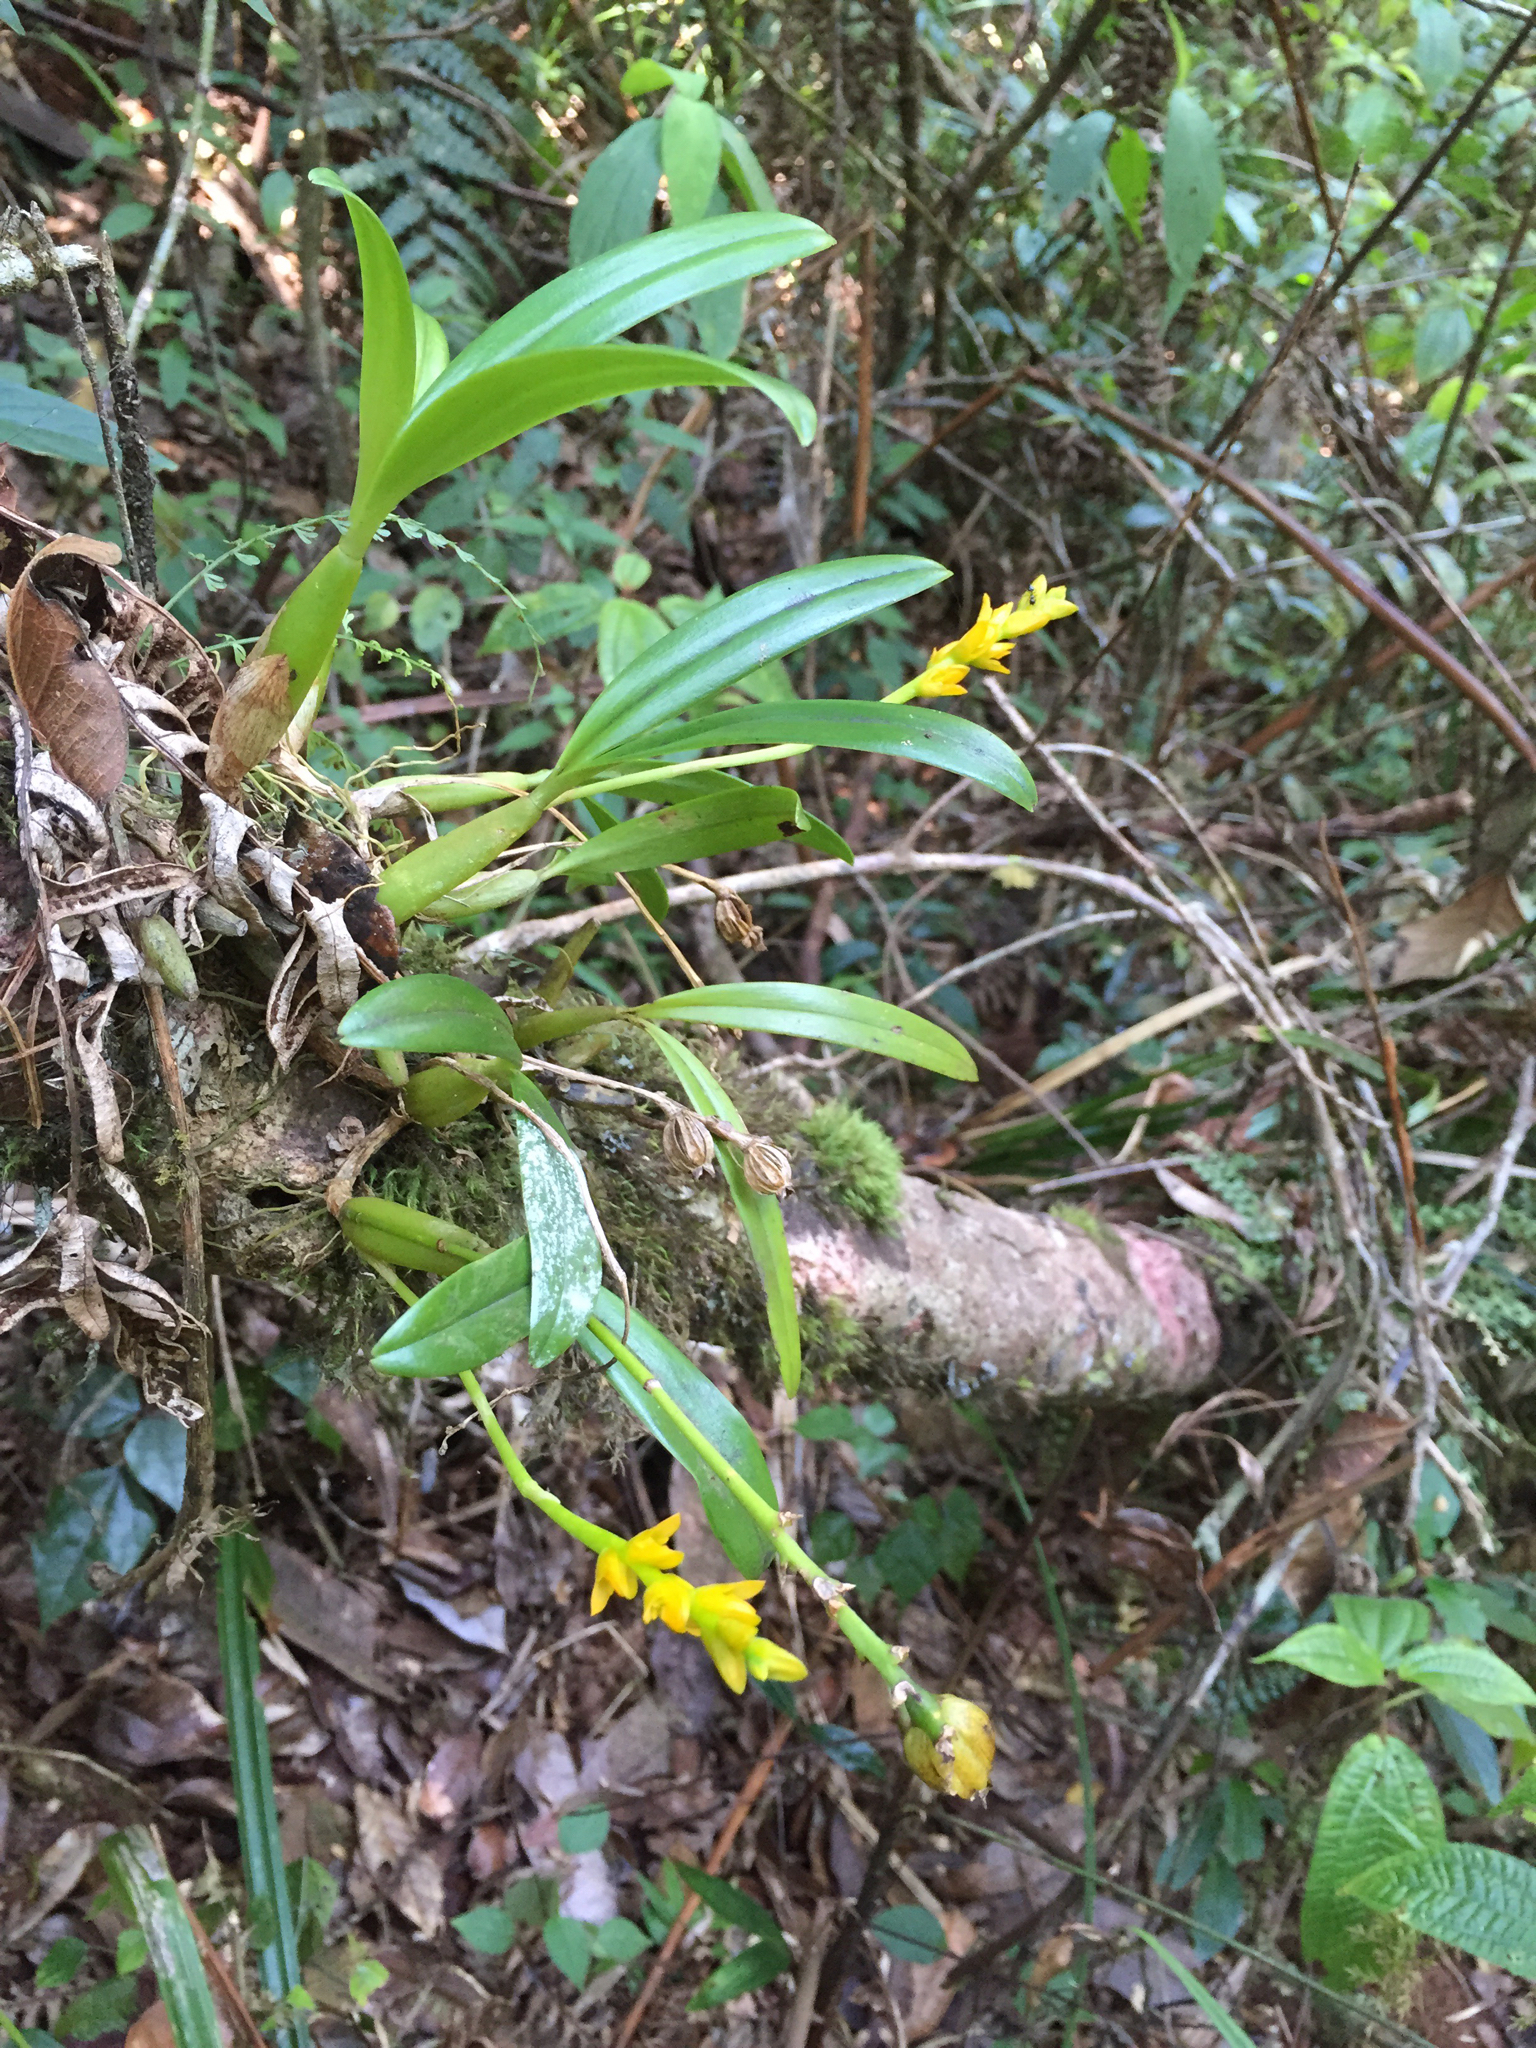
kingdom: Plantae
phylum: Tracheophyta
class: Liliopsida
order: Asparagales
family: Orchidaceae
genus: Bulbophyllum
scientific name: Bulbophyllum auriflorum
